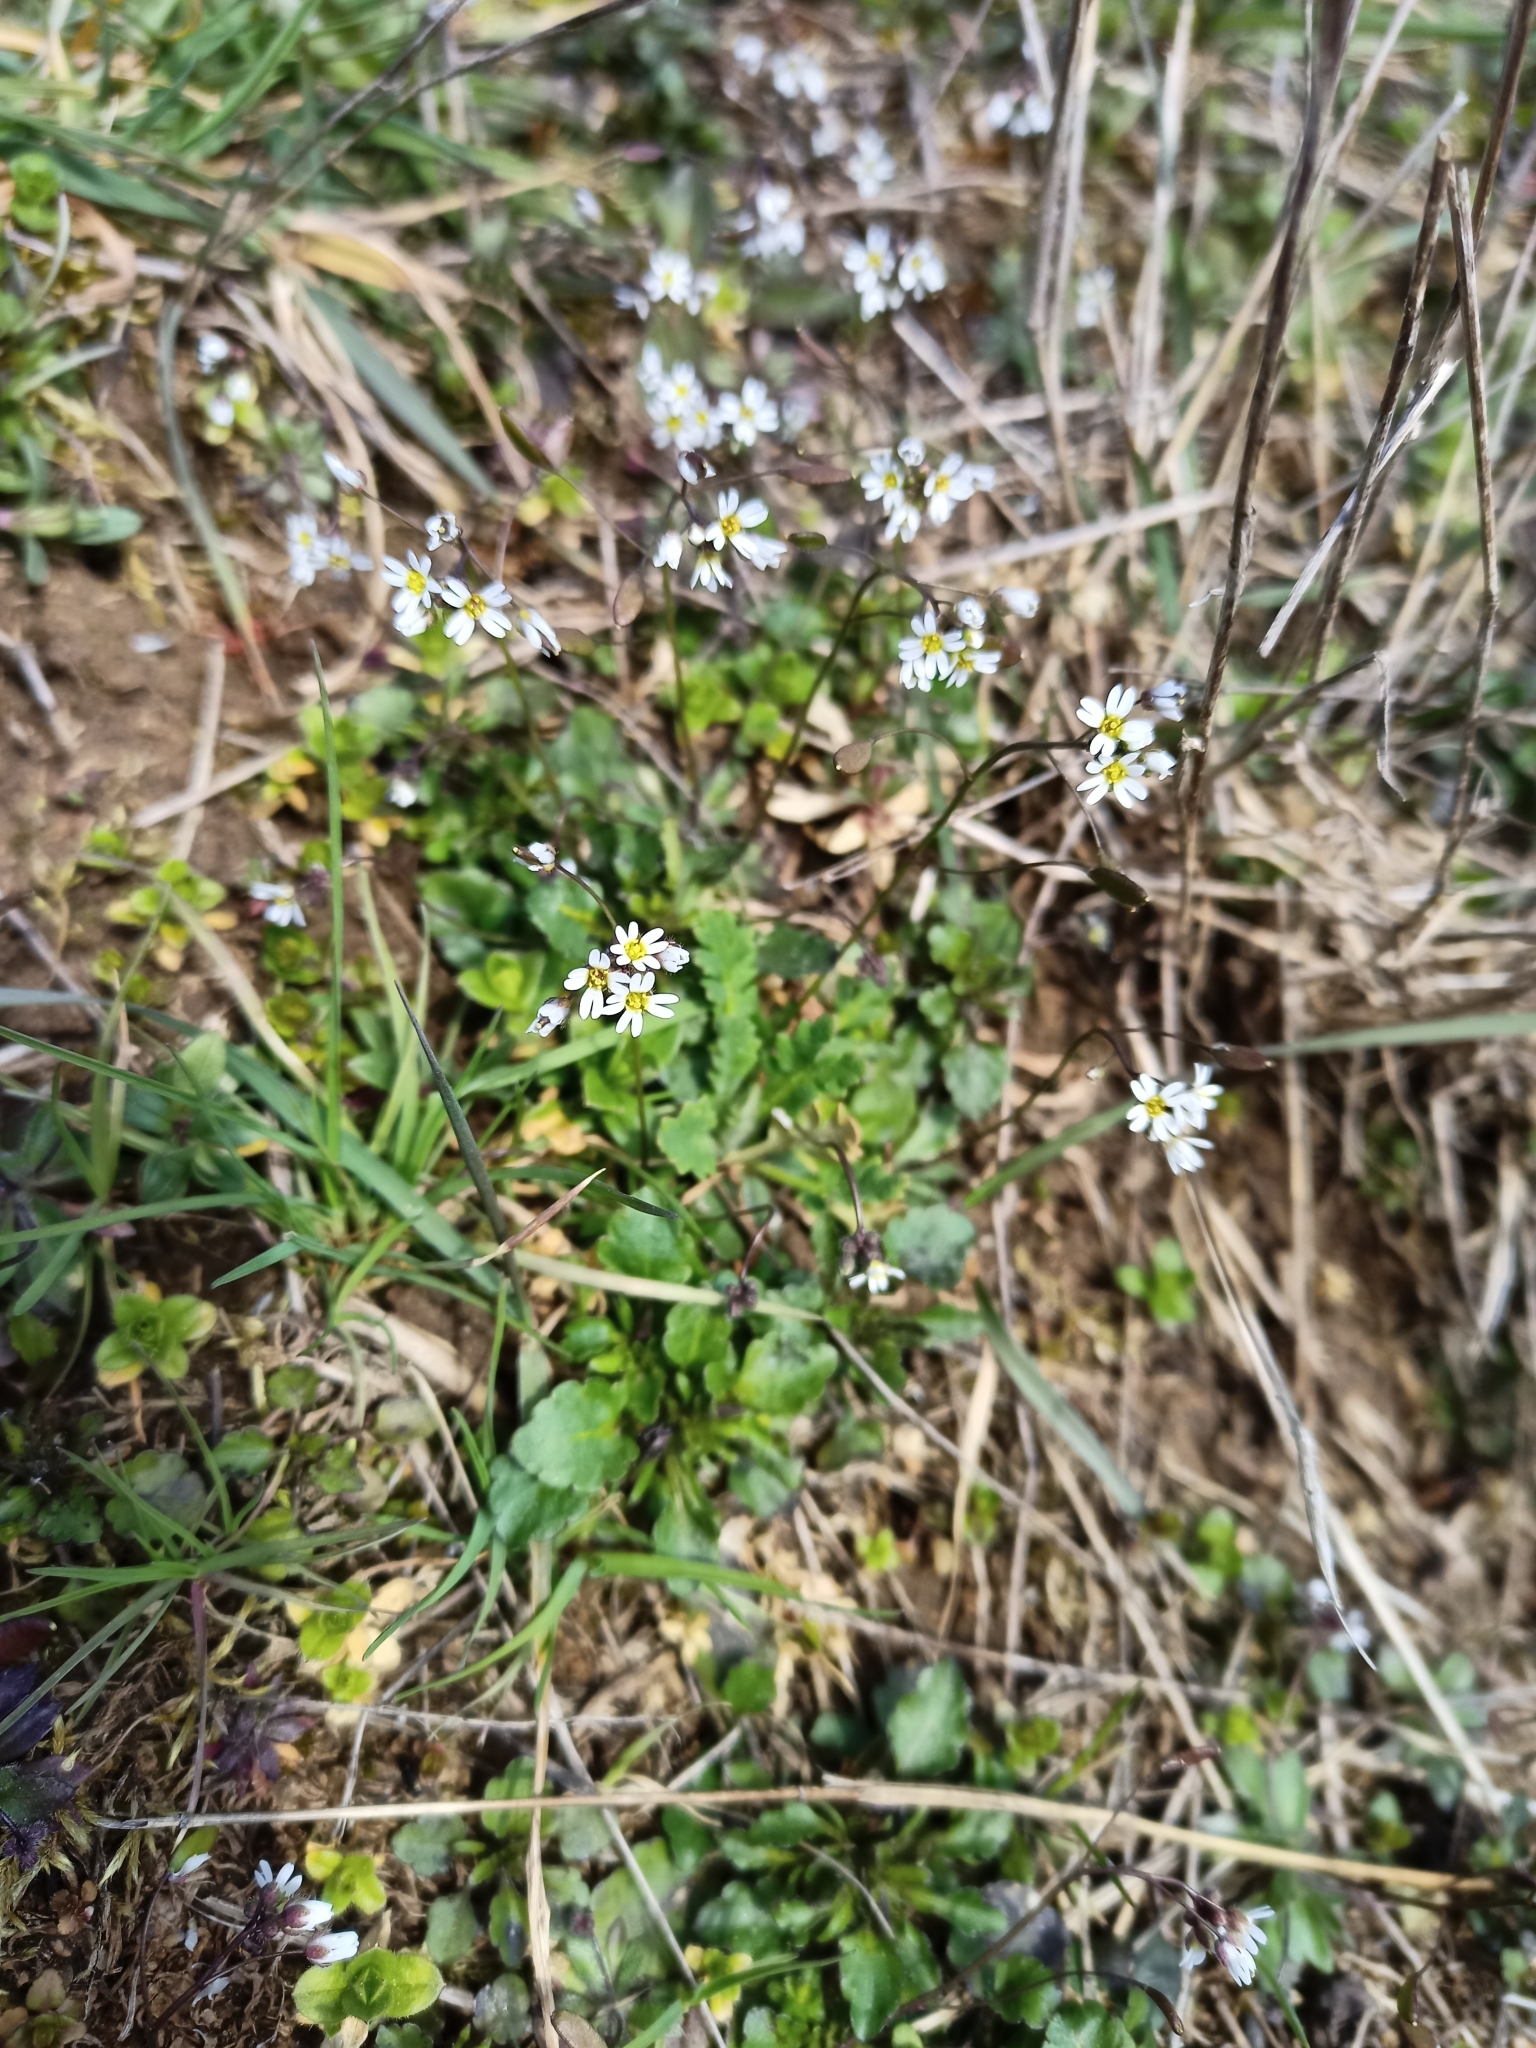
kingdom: Plantae
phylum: Tracheophyta
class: Magnoliopsida
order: Brassicales
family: Brassicaceae
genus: Draba
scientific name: Draba verna
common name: Spring draba
